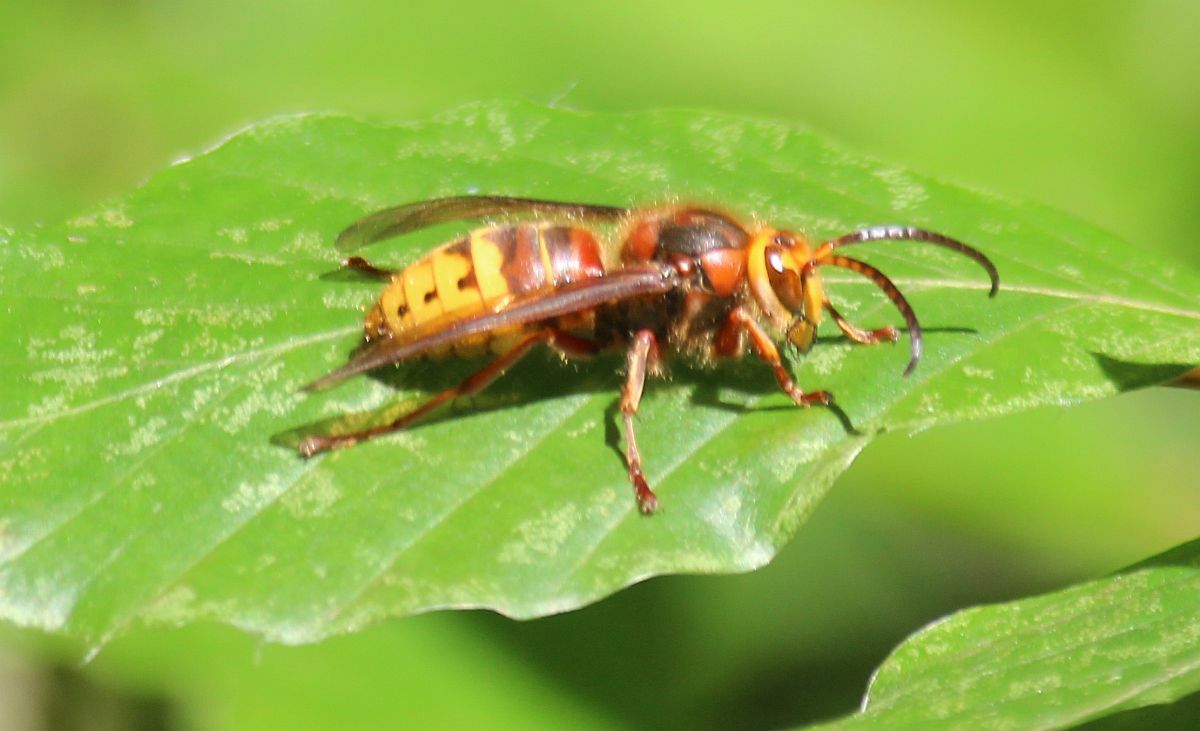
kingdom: Animalia
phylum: Arthropoda
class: Insecta
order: Hymenoptera
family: Vespidae
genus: Vespa
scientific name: Vespa crabro
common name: Hornet
